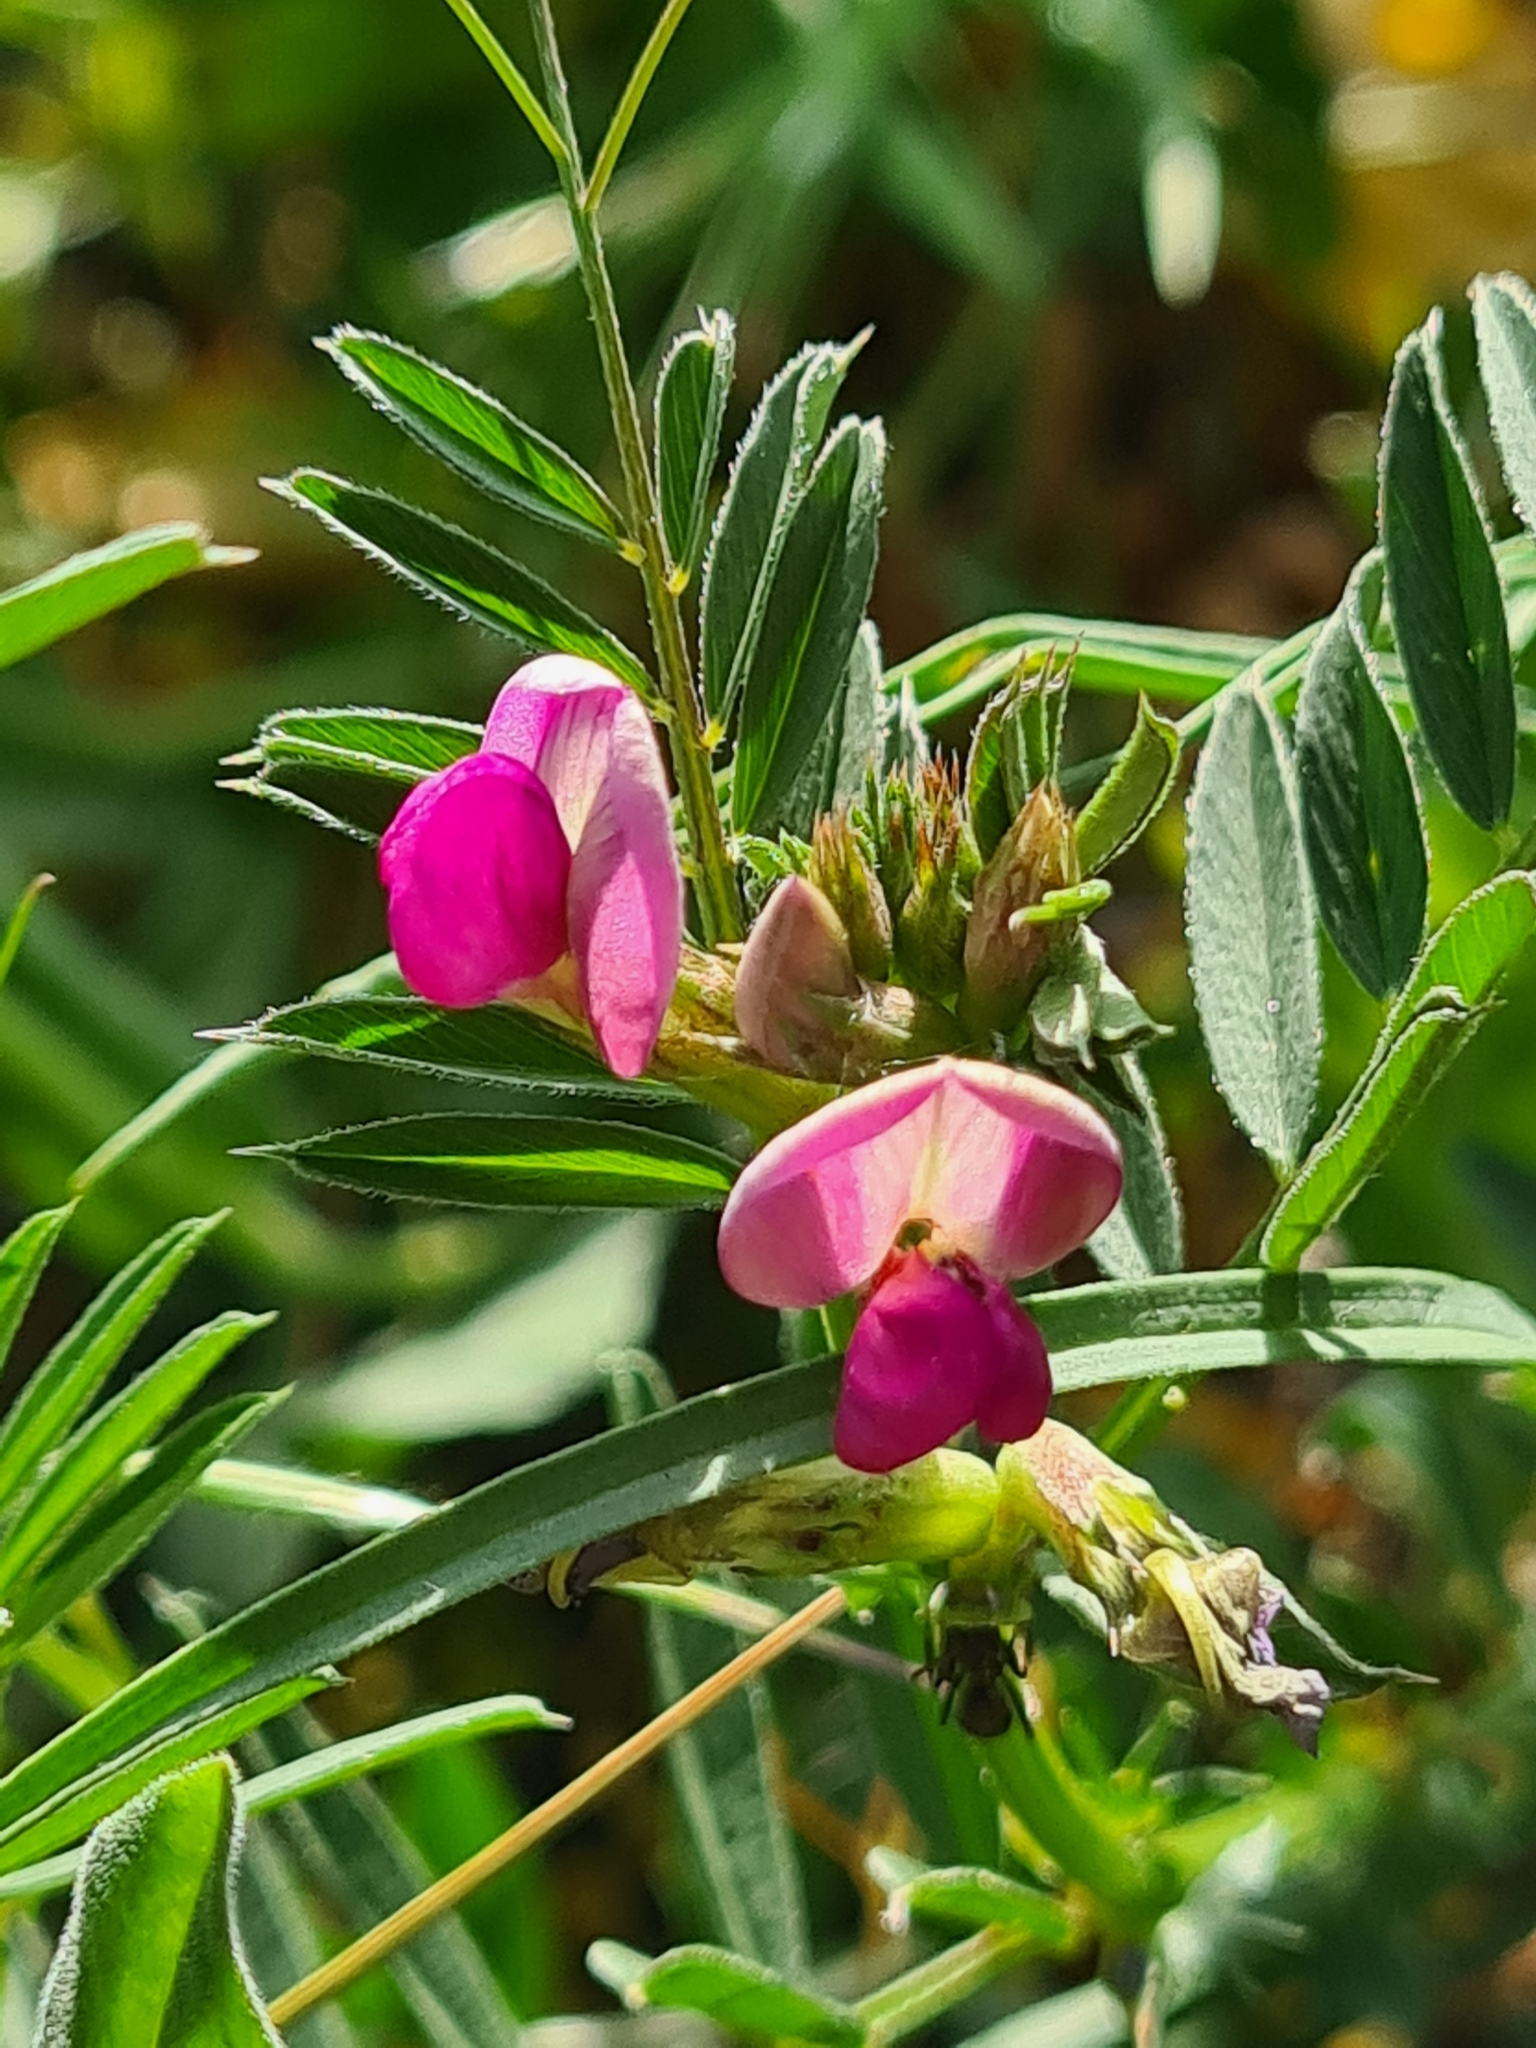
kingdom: Plantae
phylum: Tracheophyta
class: Magnoliopsida
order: Fabales
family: Fabaceae
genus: Vicia
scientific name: Vicia sativa
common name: Garden vetch
